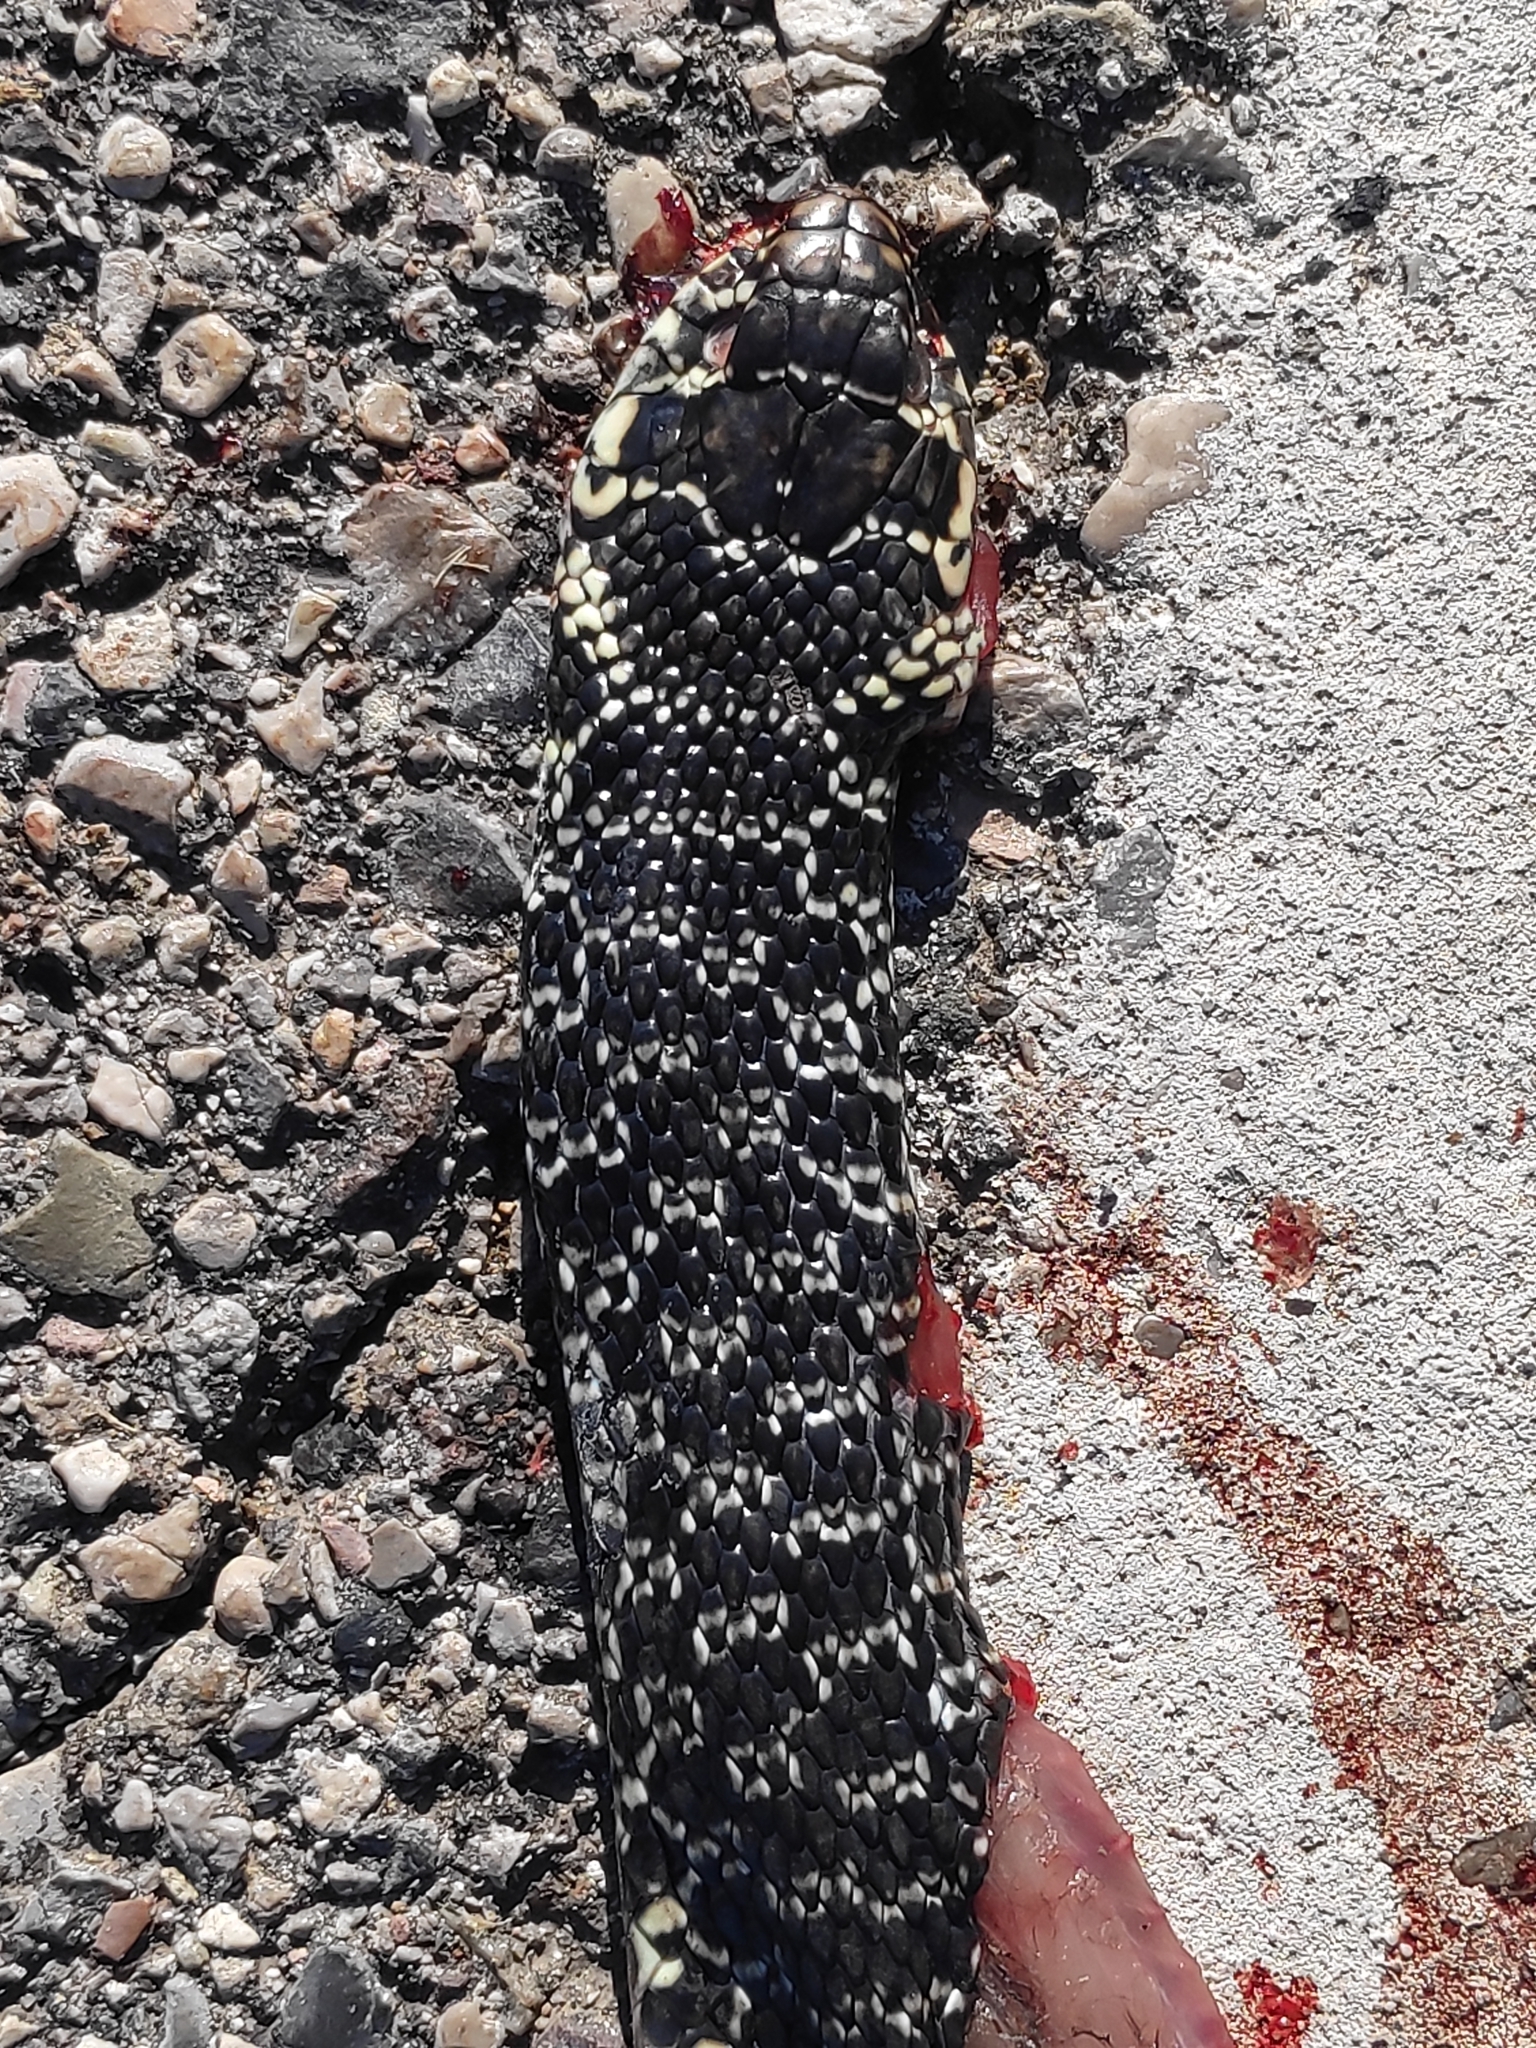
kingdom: Animalia
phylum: Chordata
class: Squamata
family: Colubridae
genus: Hierophis
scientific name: Hierophis viridiflavus
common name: Green whip snake
